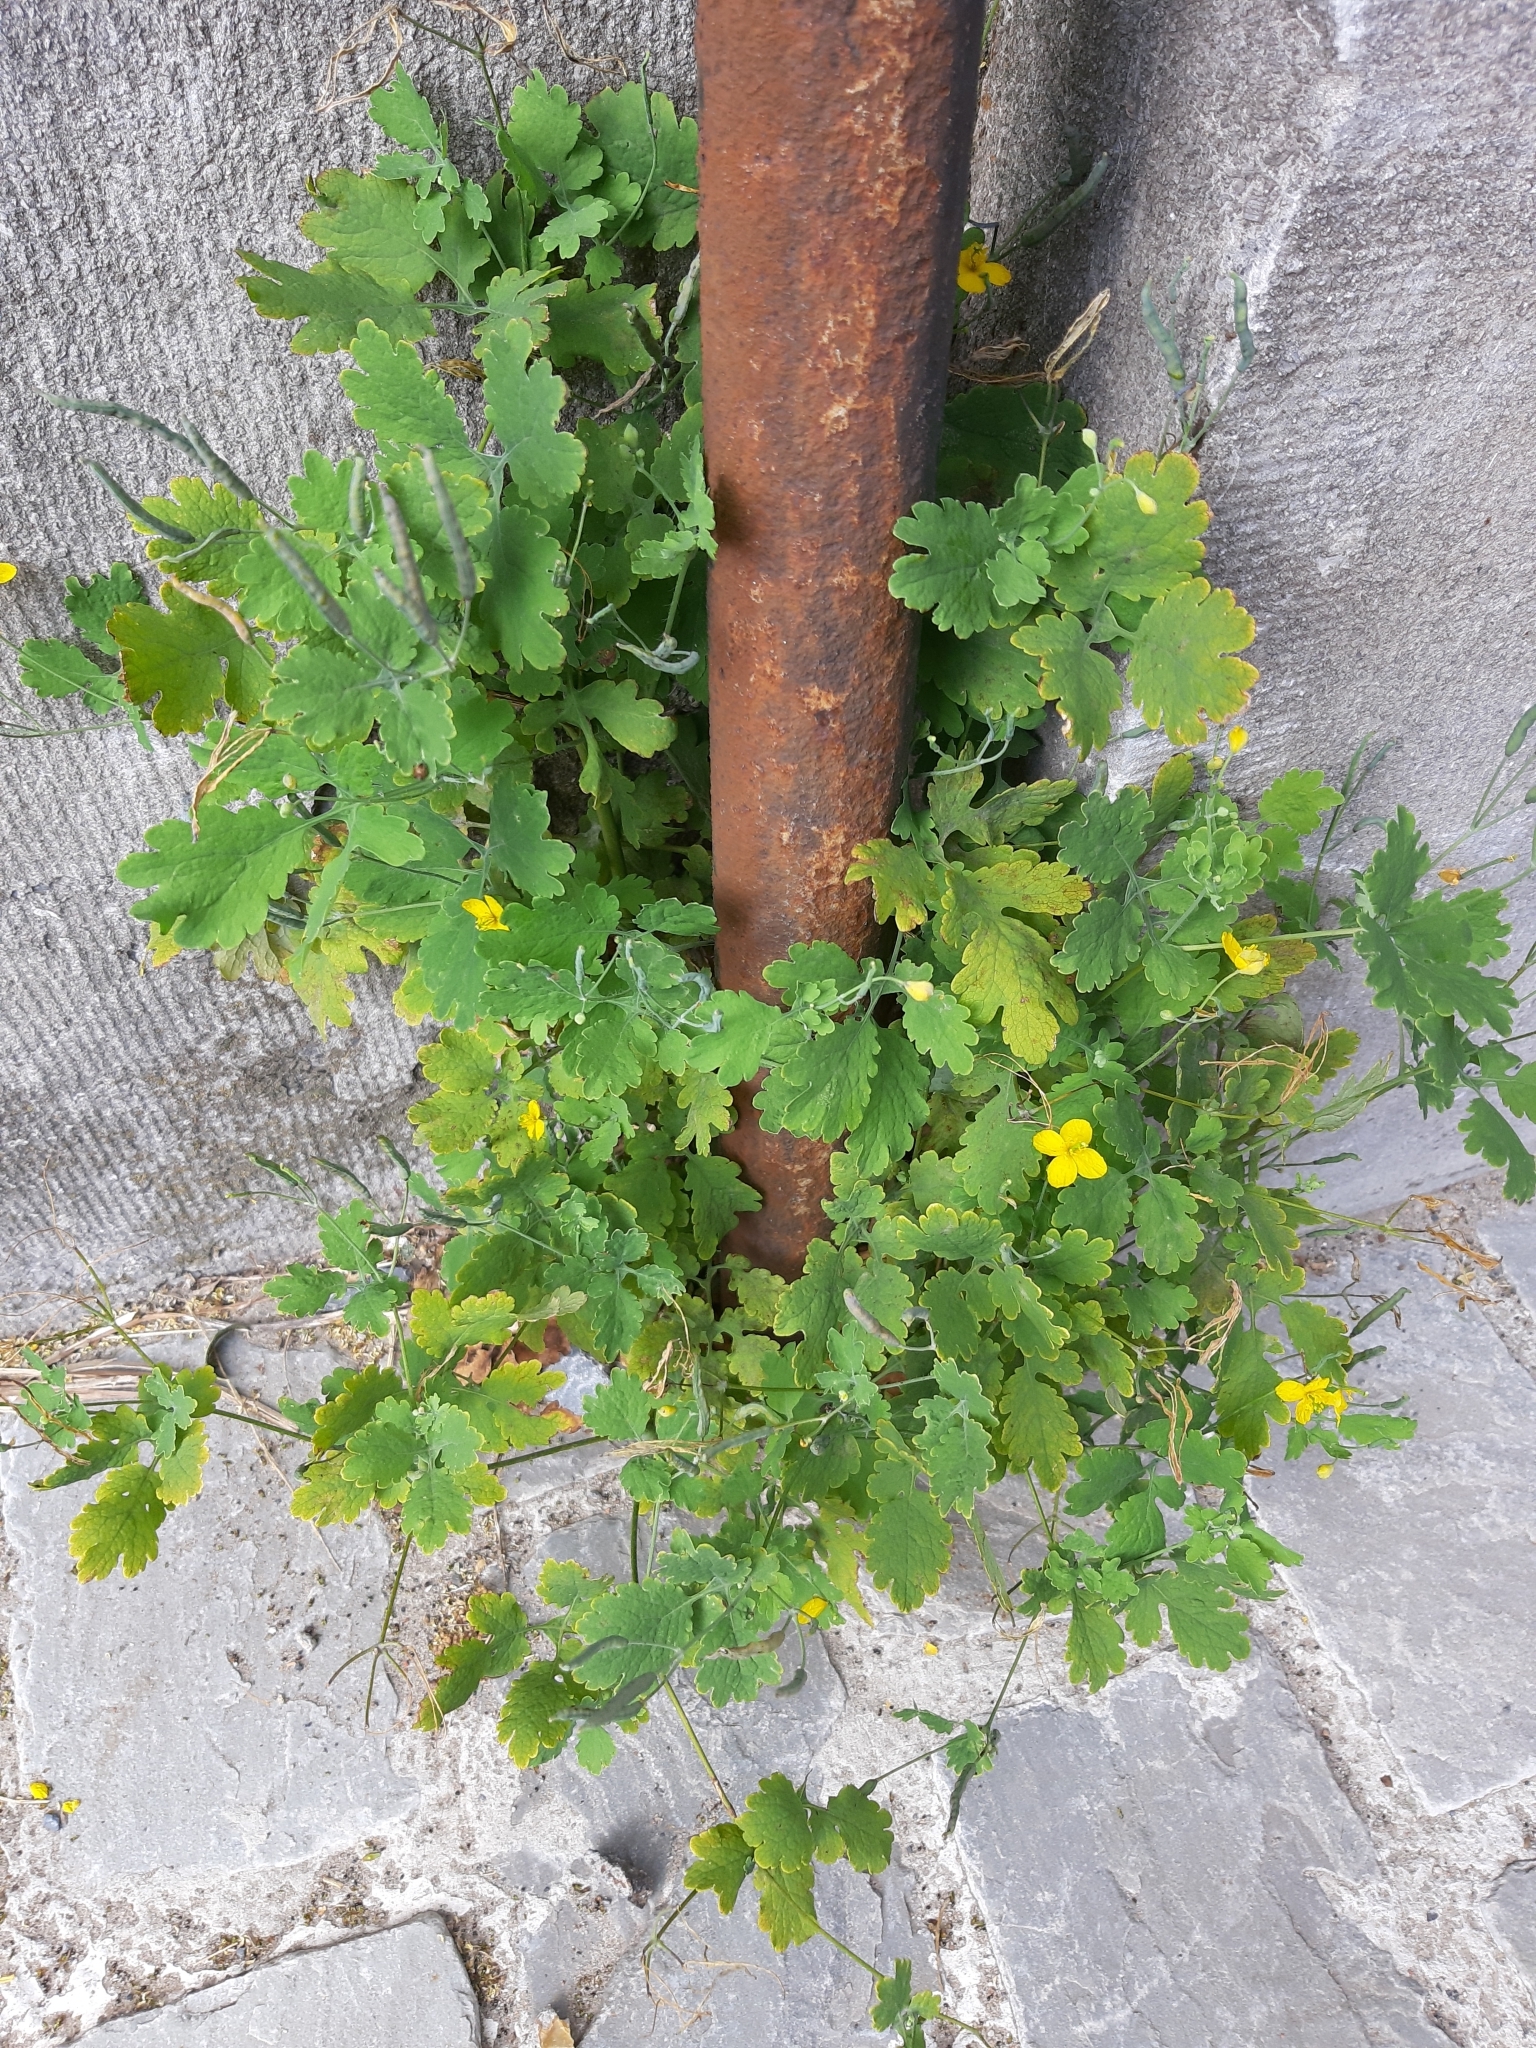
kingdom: Plantae
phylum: Tracheophyta
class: Magnoliopsida
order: Ranunculales
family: Papaveraceae
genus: Chelidonium
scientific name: Chelidonium majus
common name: Greater celandine
